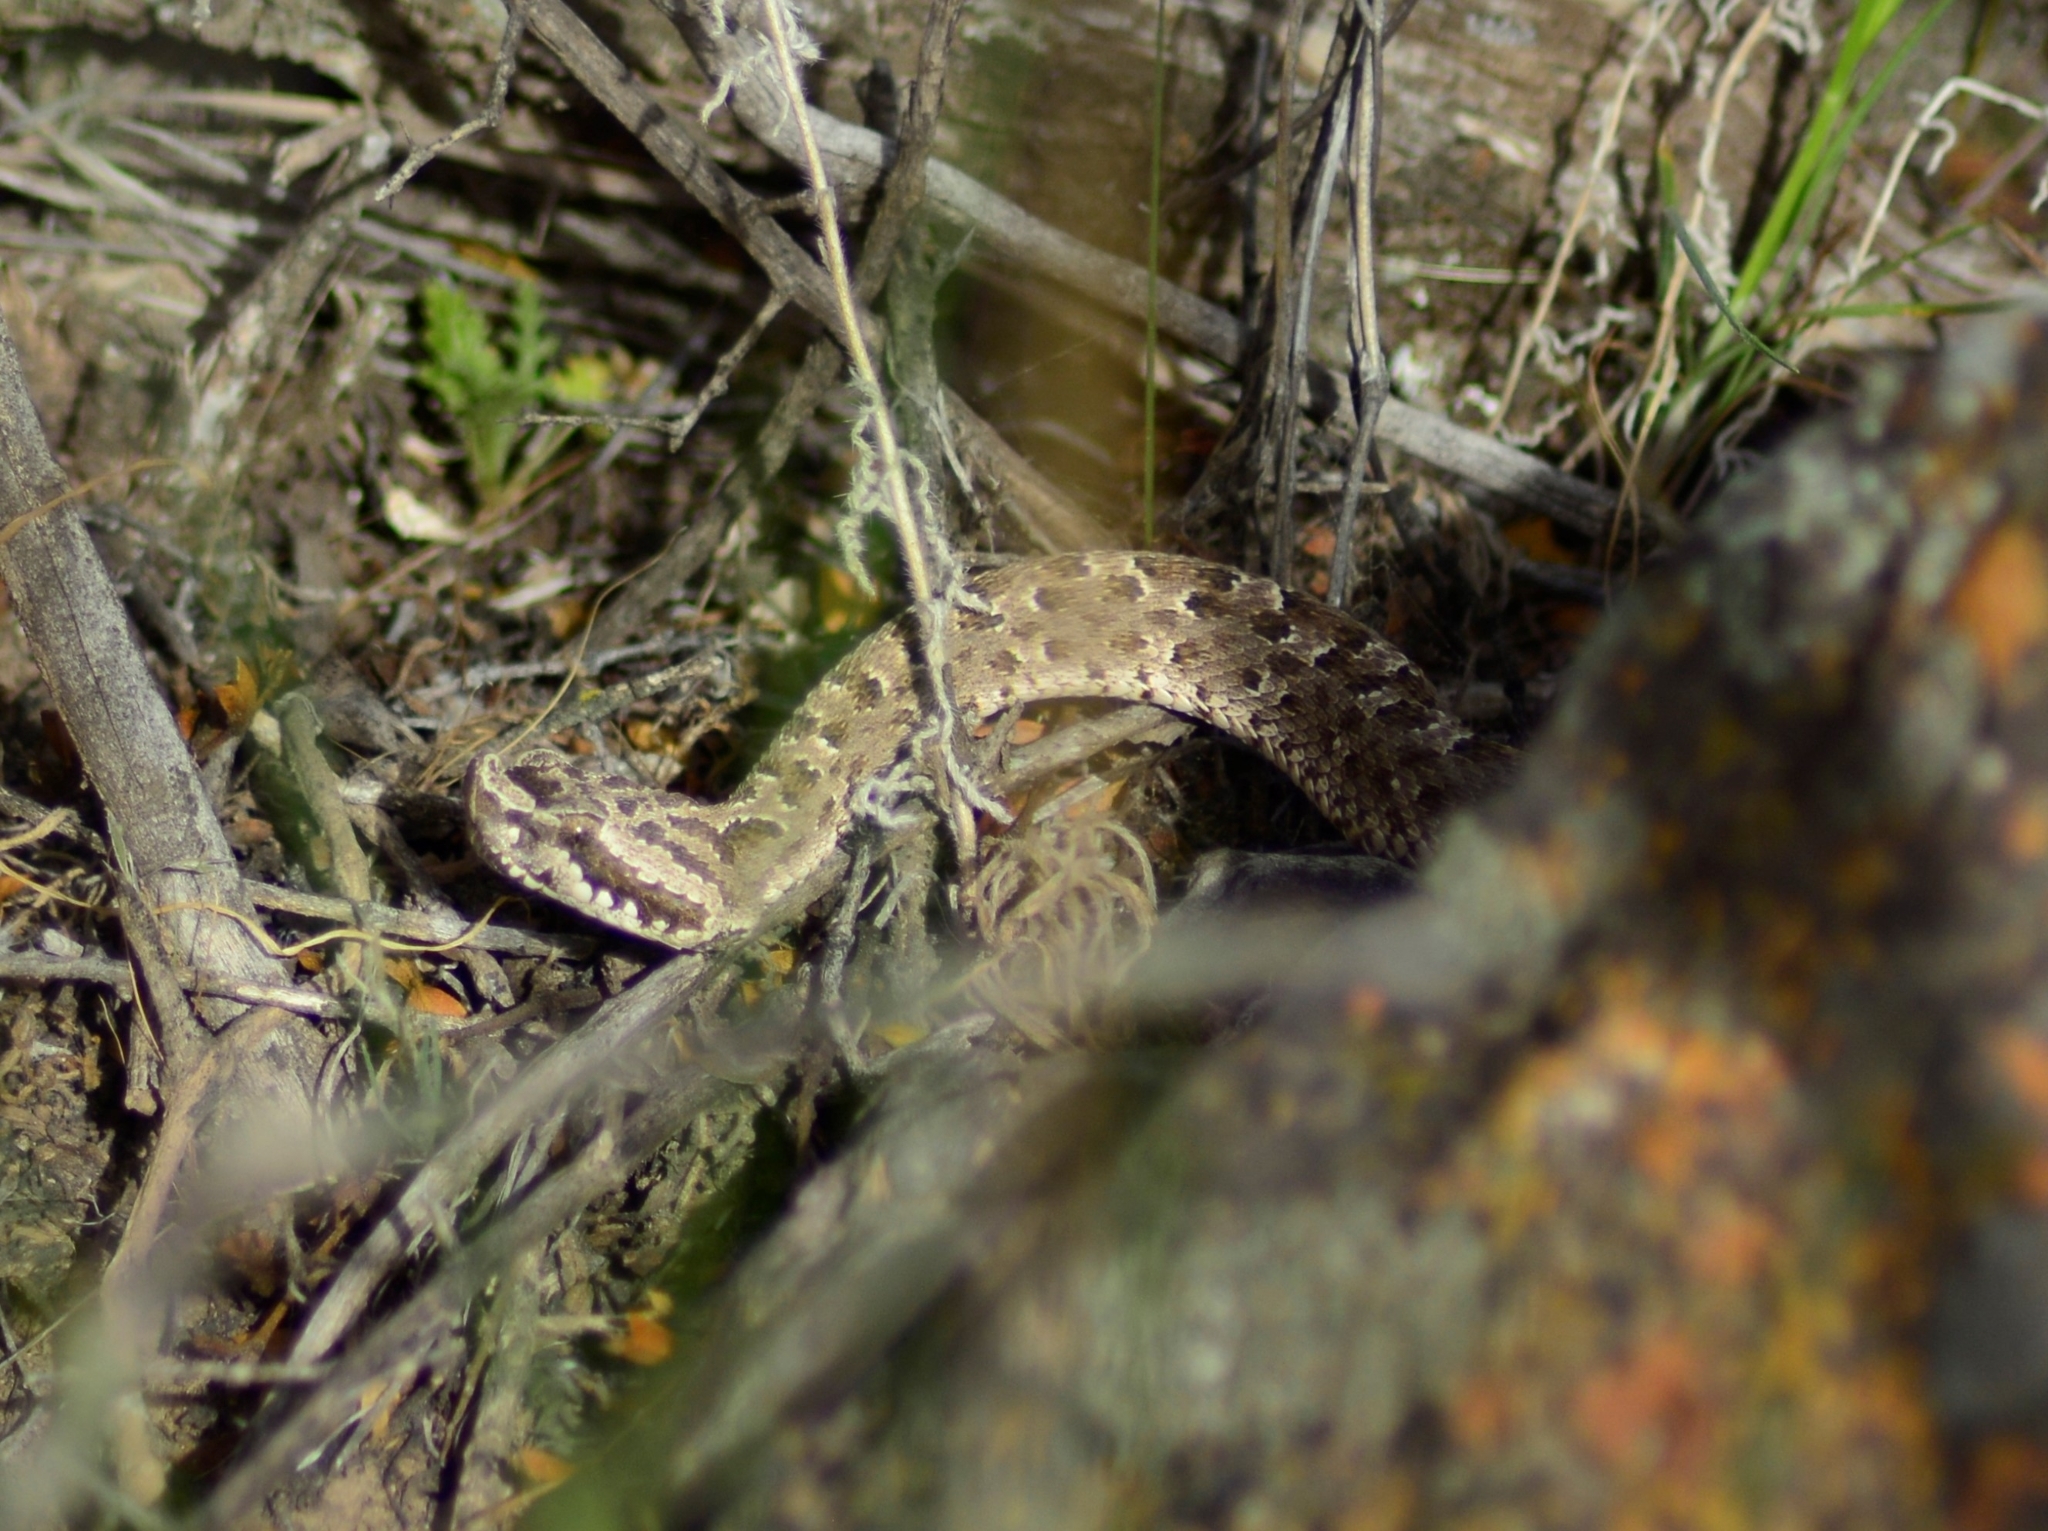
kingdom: Animalia
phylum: Chordata
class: Squamata
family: Viperidae
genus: Bothrops
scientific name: Bothrops ammodytoides
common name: Yararanata
